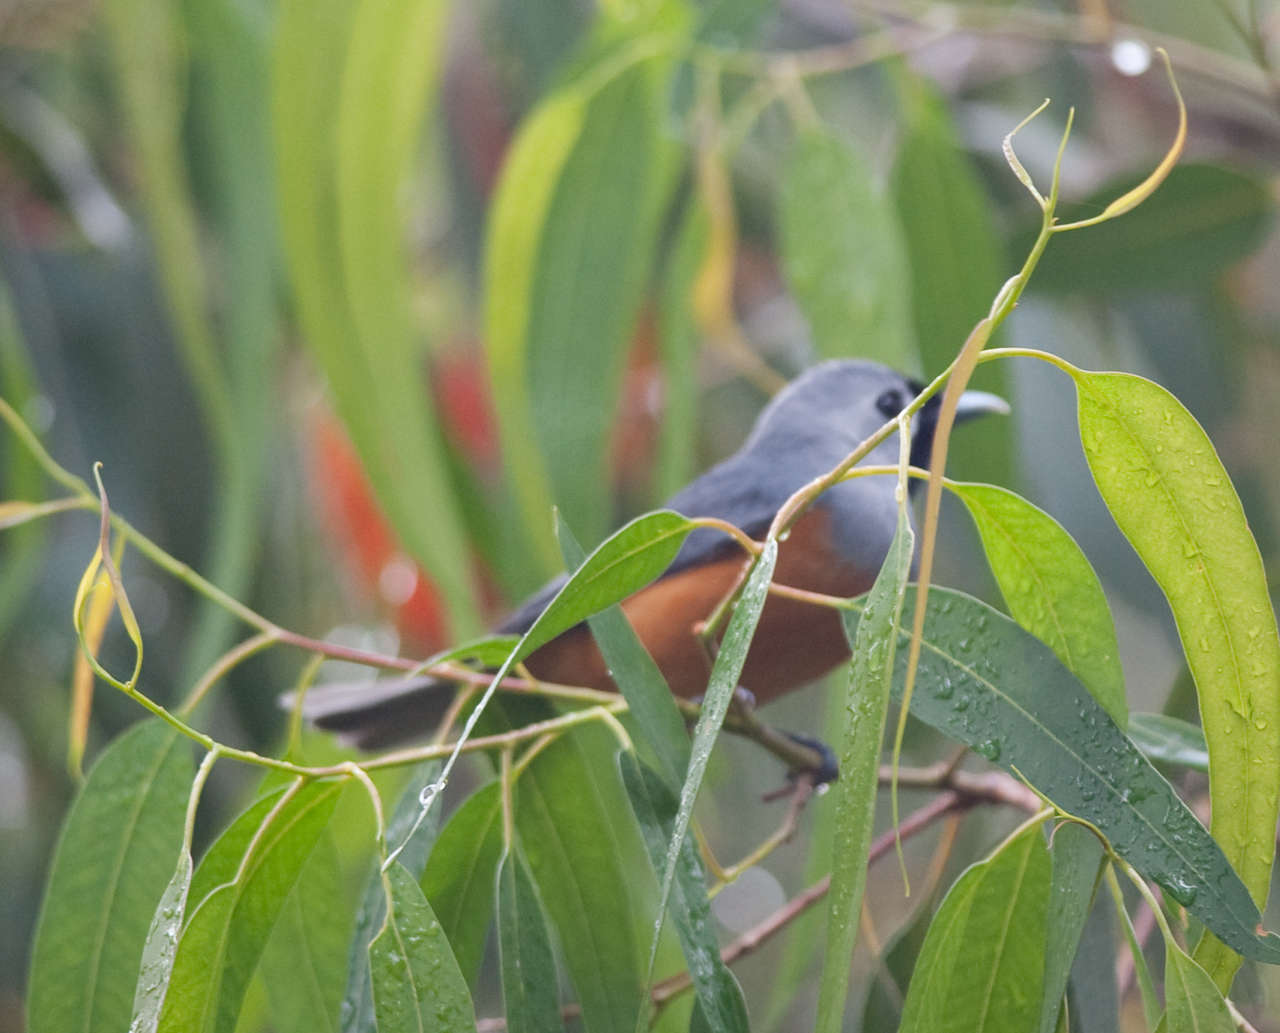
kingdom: Animalia
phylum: Chordata
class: Aves
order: Passeriformes
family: Monarchidae
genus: Monarcha
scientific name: Monarcha melanopsis
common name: Black-faced monarch
